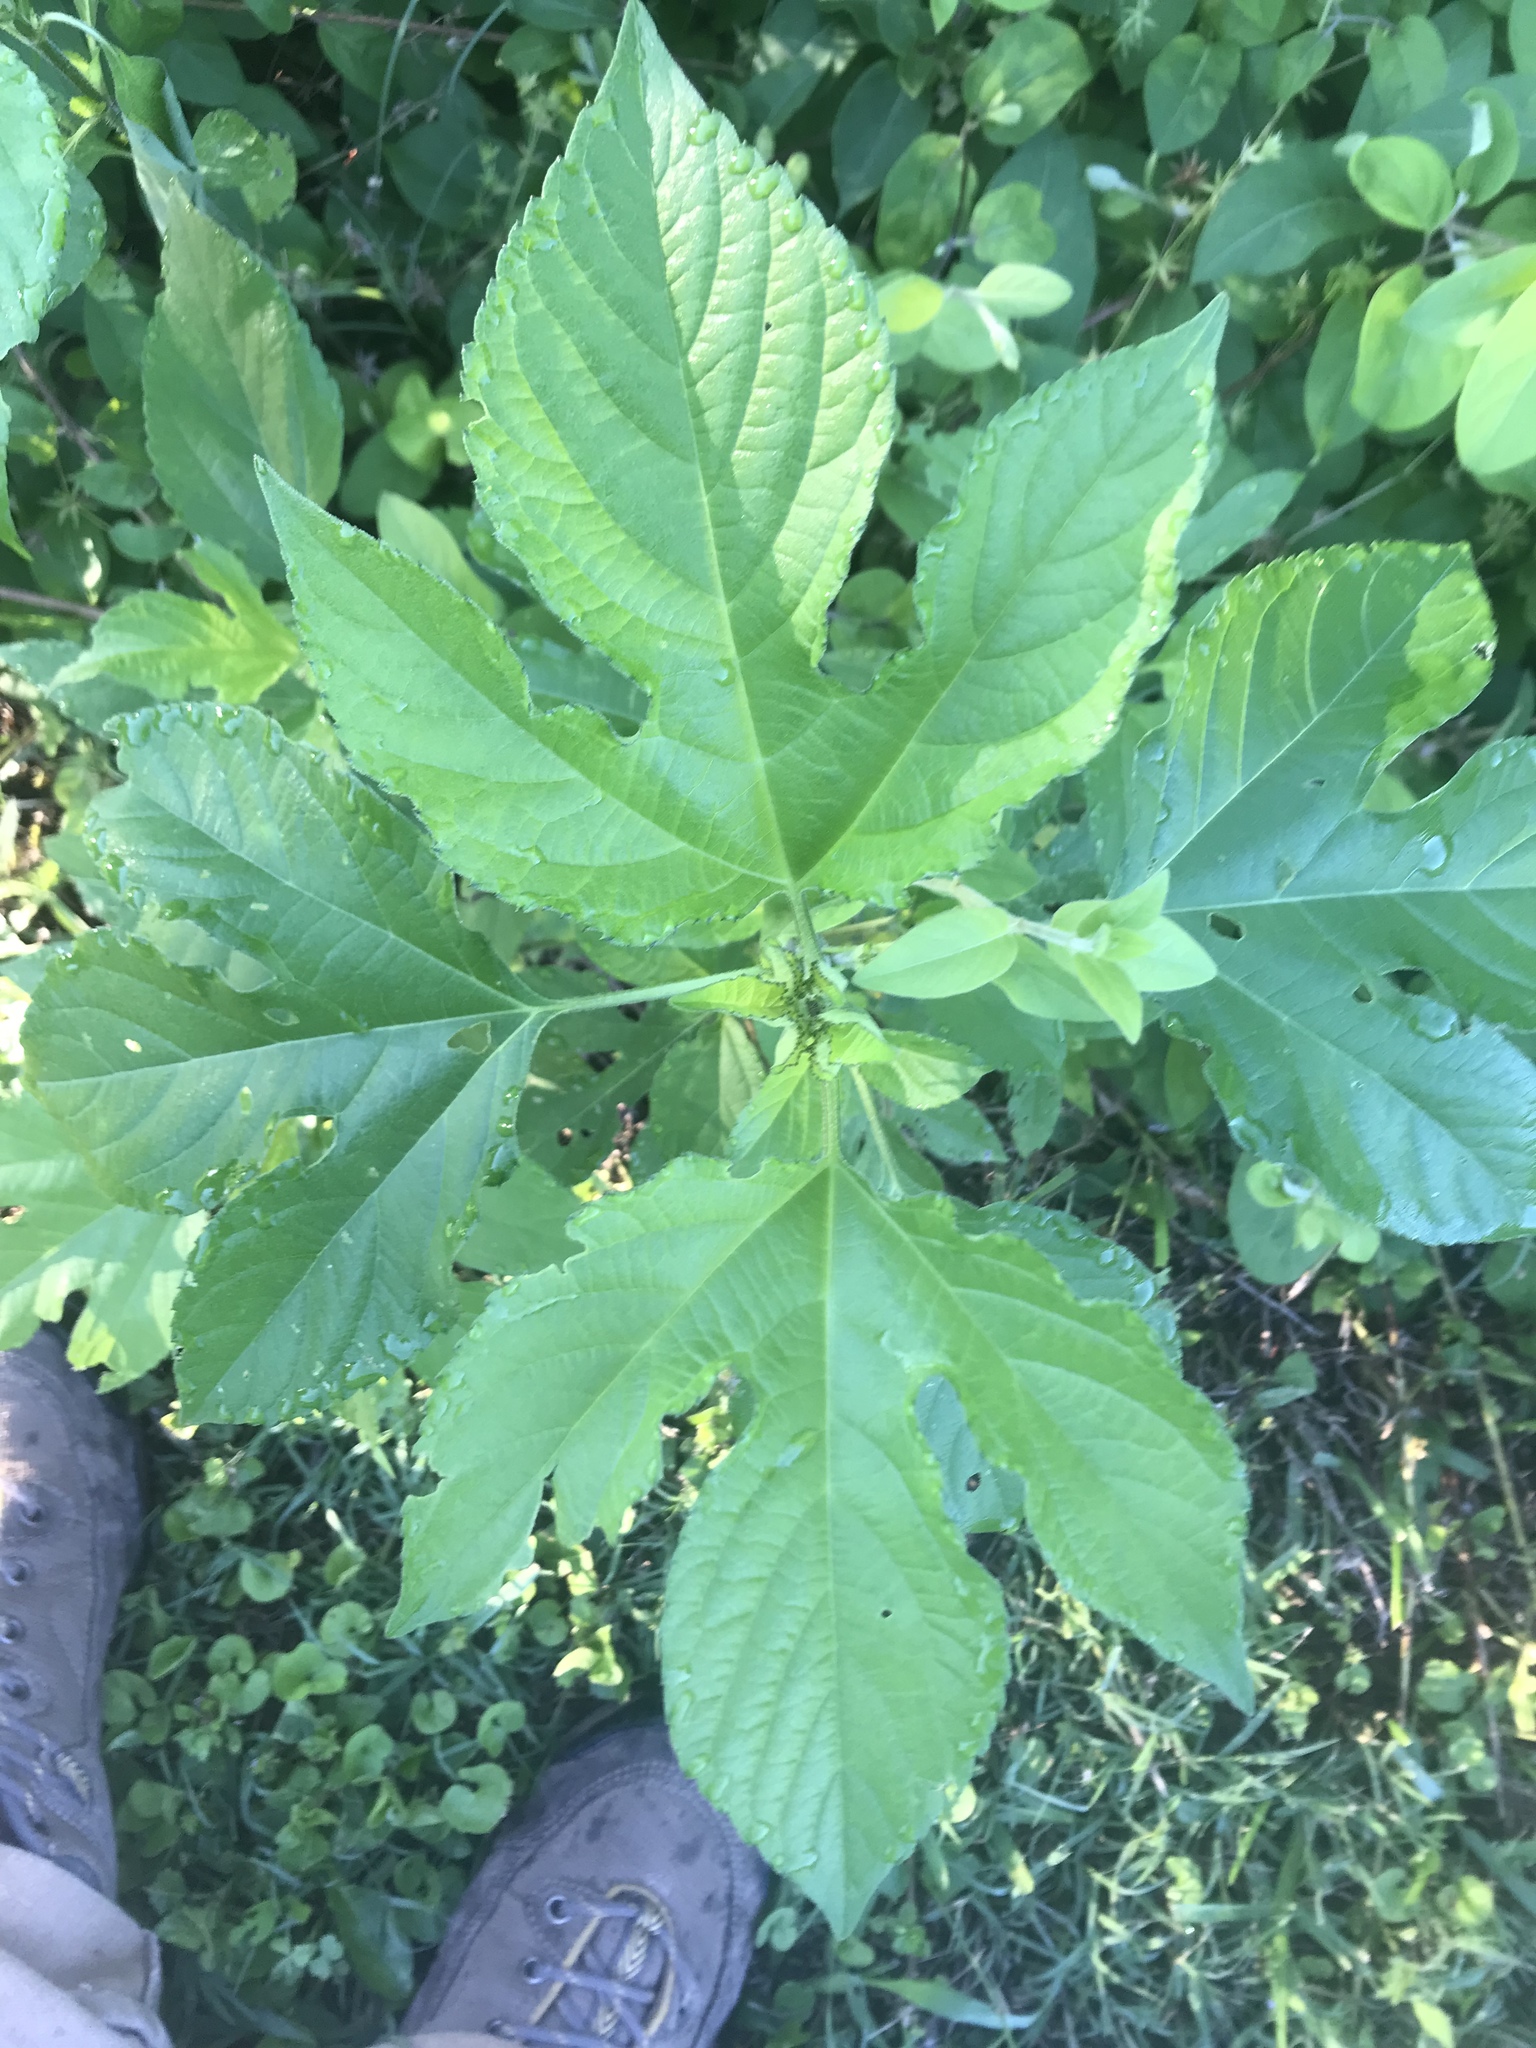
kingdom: Plantae
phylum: Tracheophyta
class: Magnoliopsida
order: Asterales
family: Asteraceae
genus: Ambrosia
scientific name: Ambrosia trifida
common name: Giant ragweed
